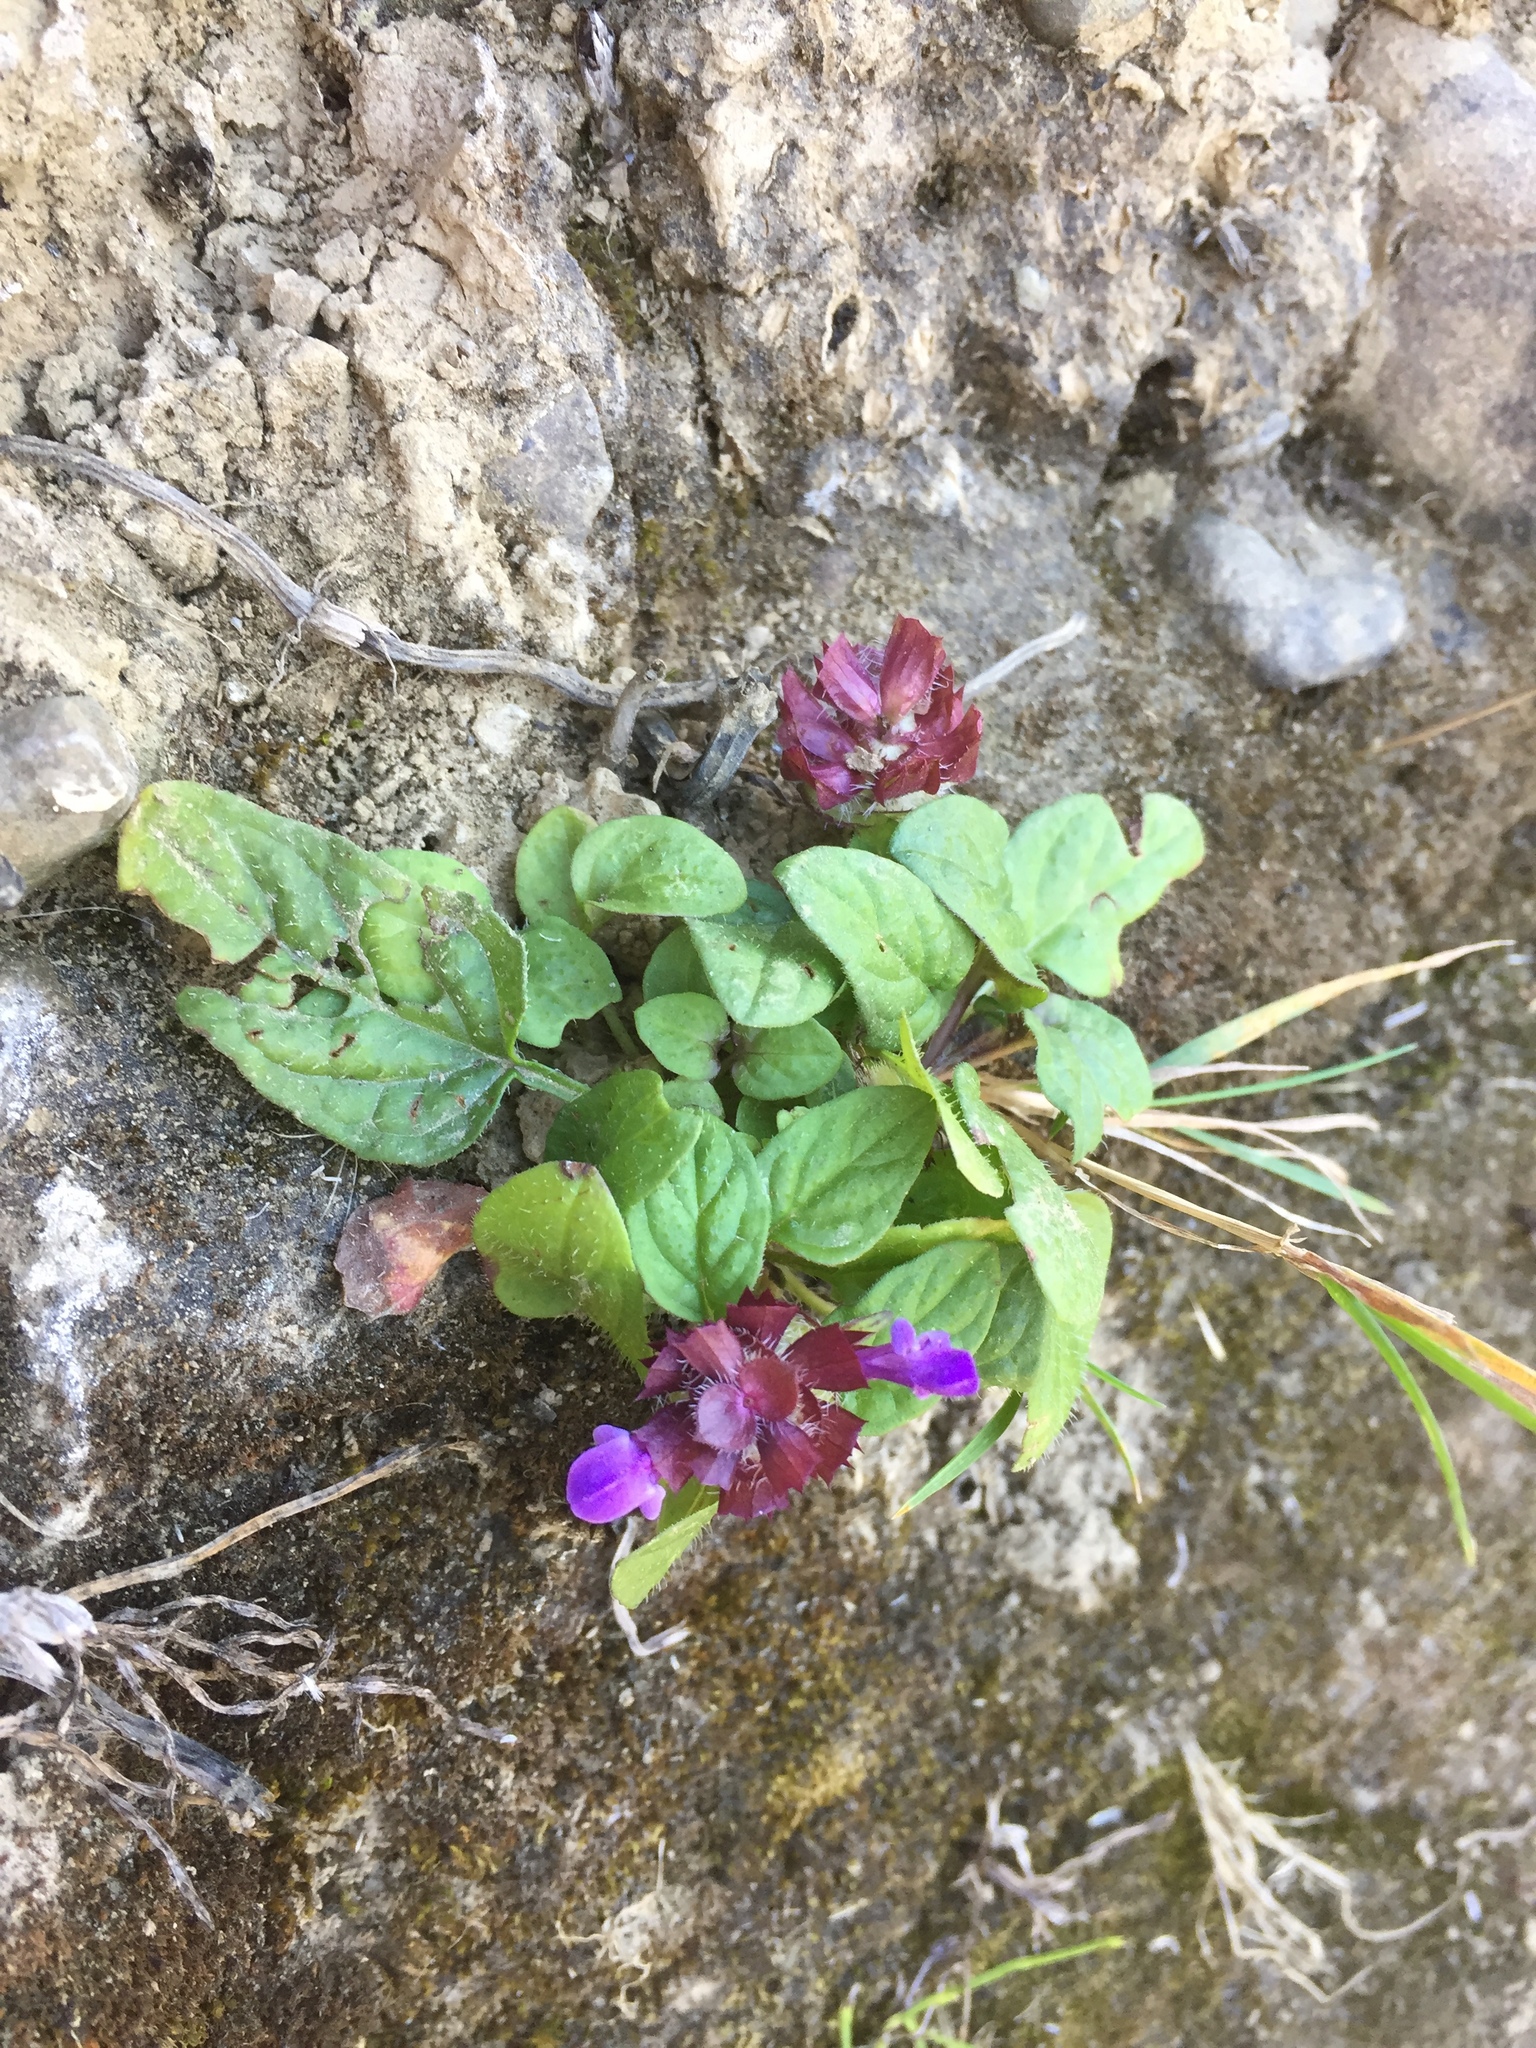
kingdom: Plantae
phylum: Tracheophyta
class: Magnoliopsida
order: Lamiales
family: Lamiaceae
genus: Prunella
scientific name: Prunella vulgaris
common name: Heal-all
